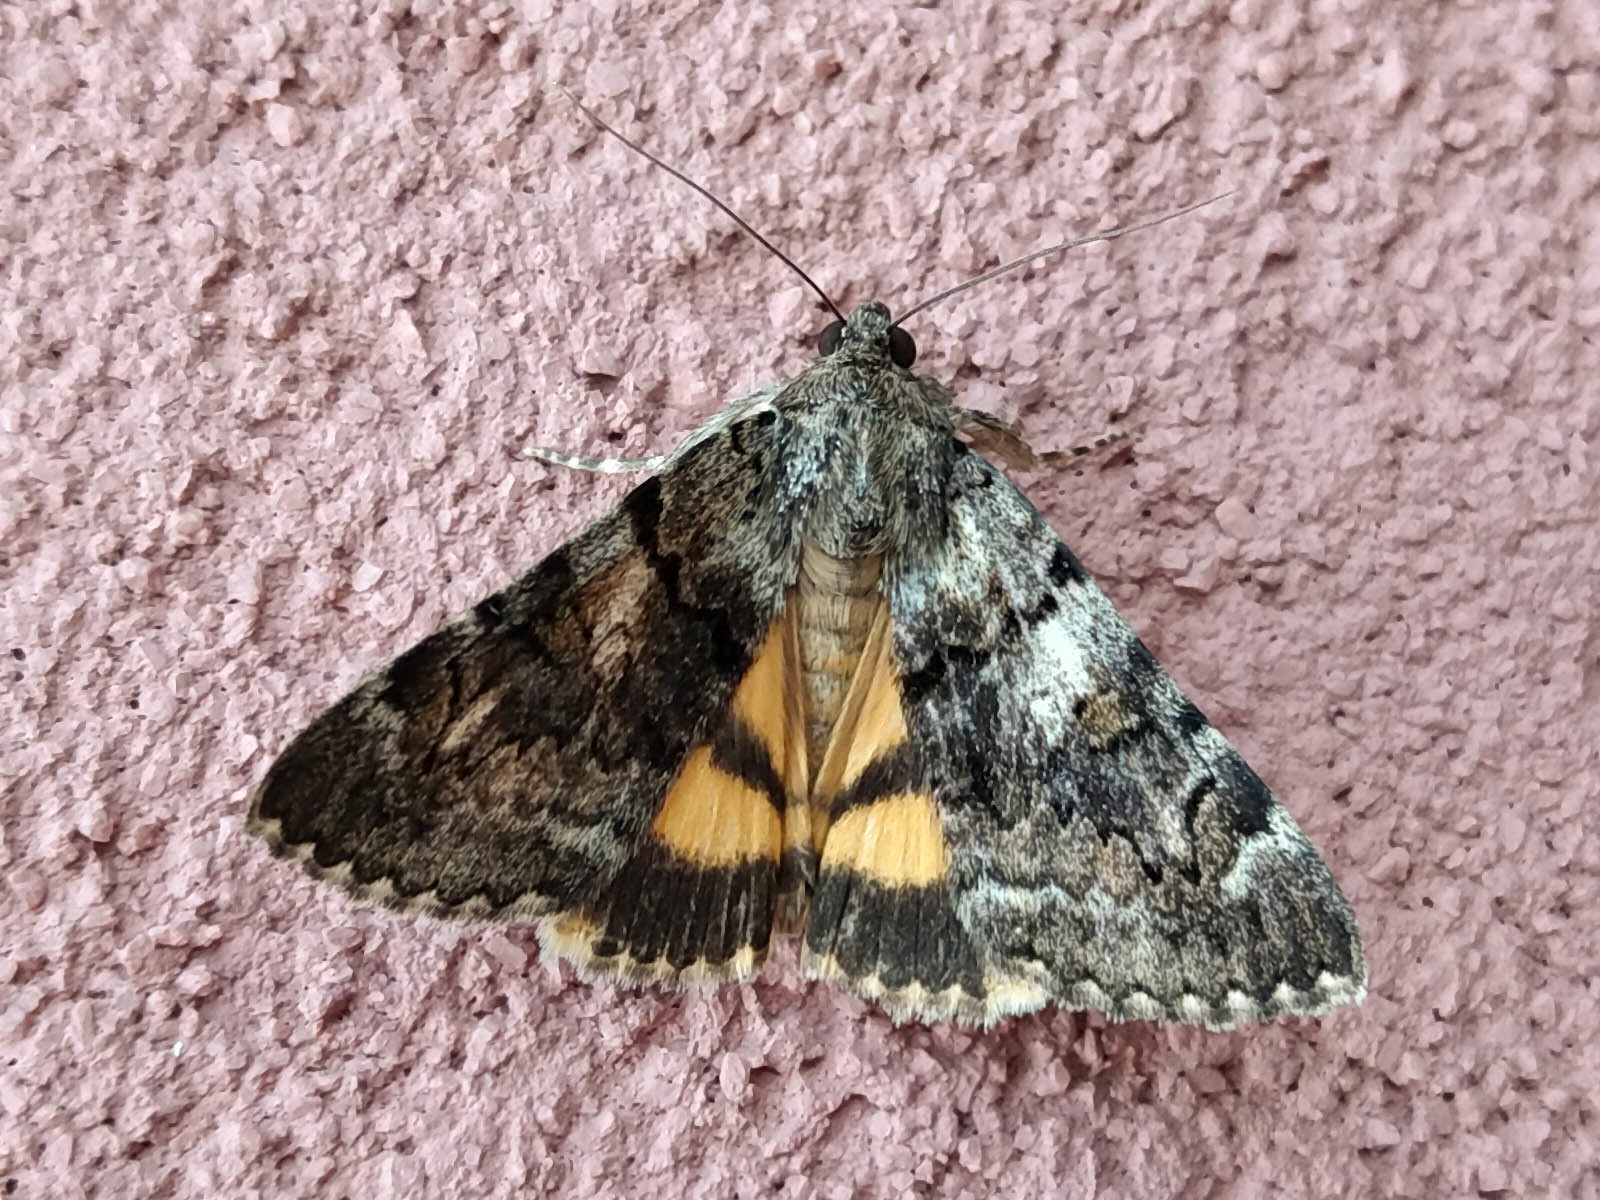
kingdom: Animalia
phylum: Arthropoda
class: Insecta
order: Lepidoptera
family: Erebidae
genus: Catocala
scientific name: Catocala nymphagoga
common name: Oak yellow underwing
